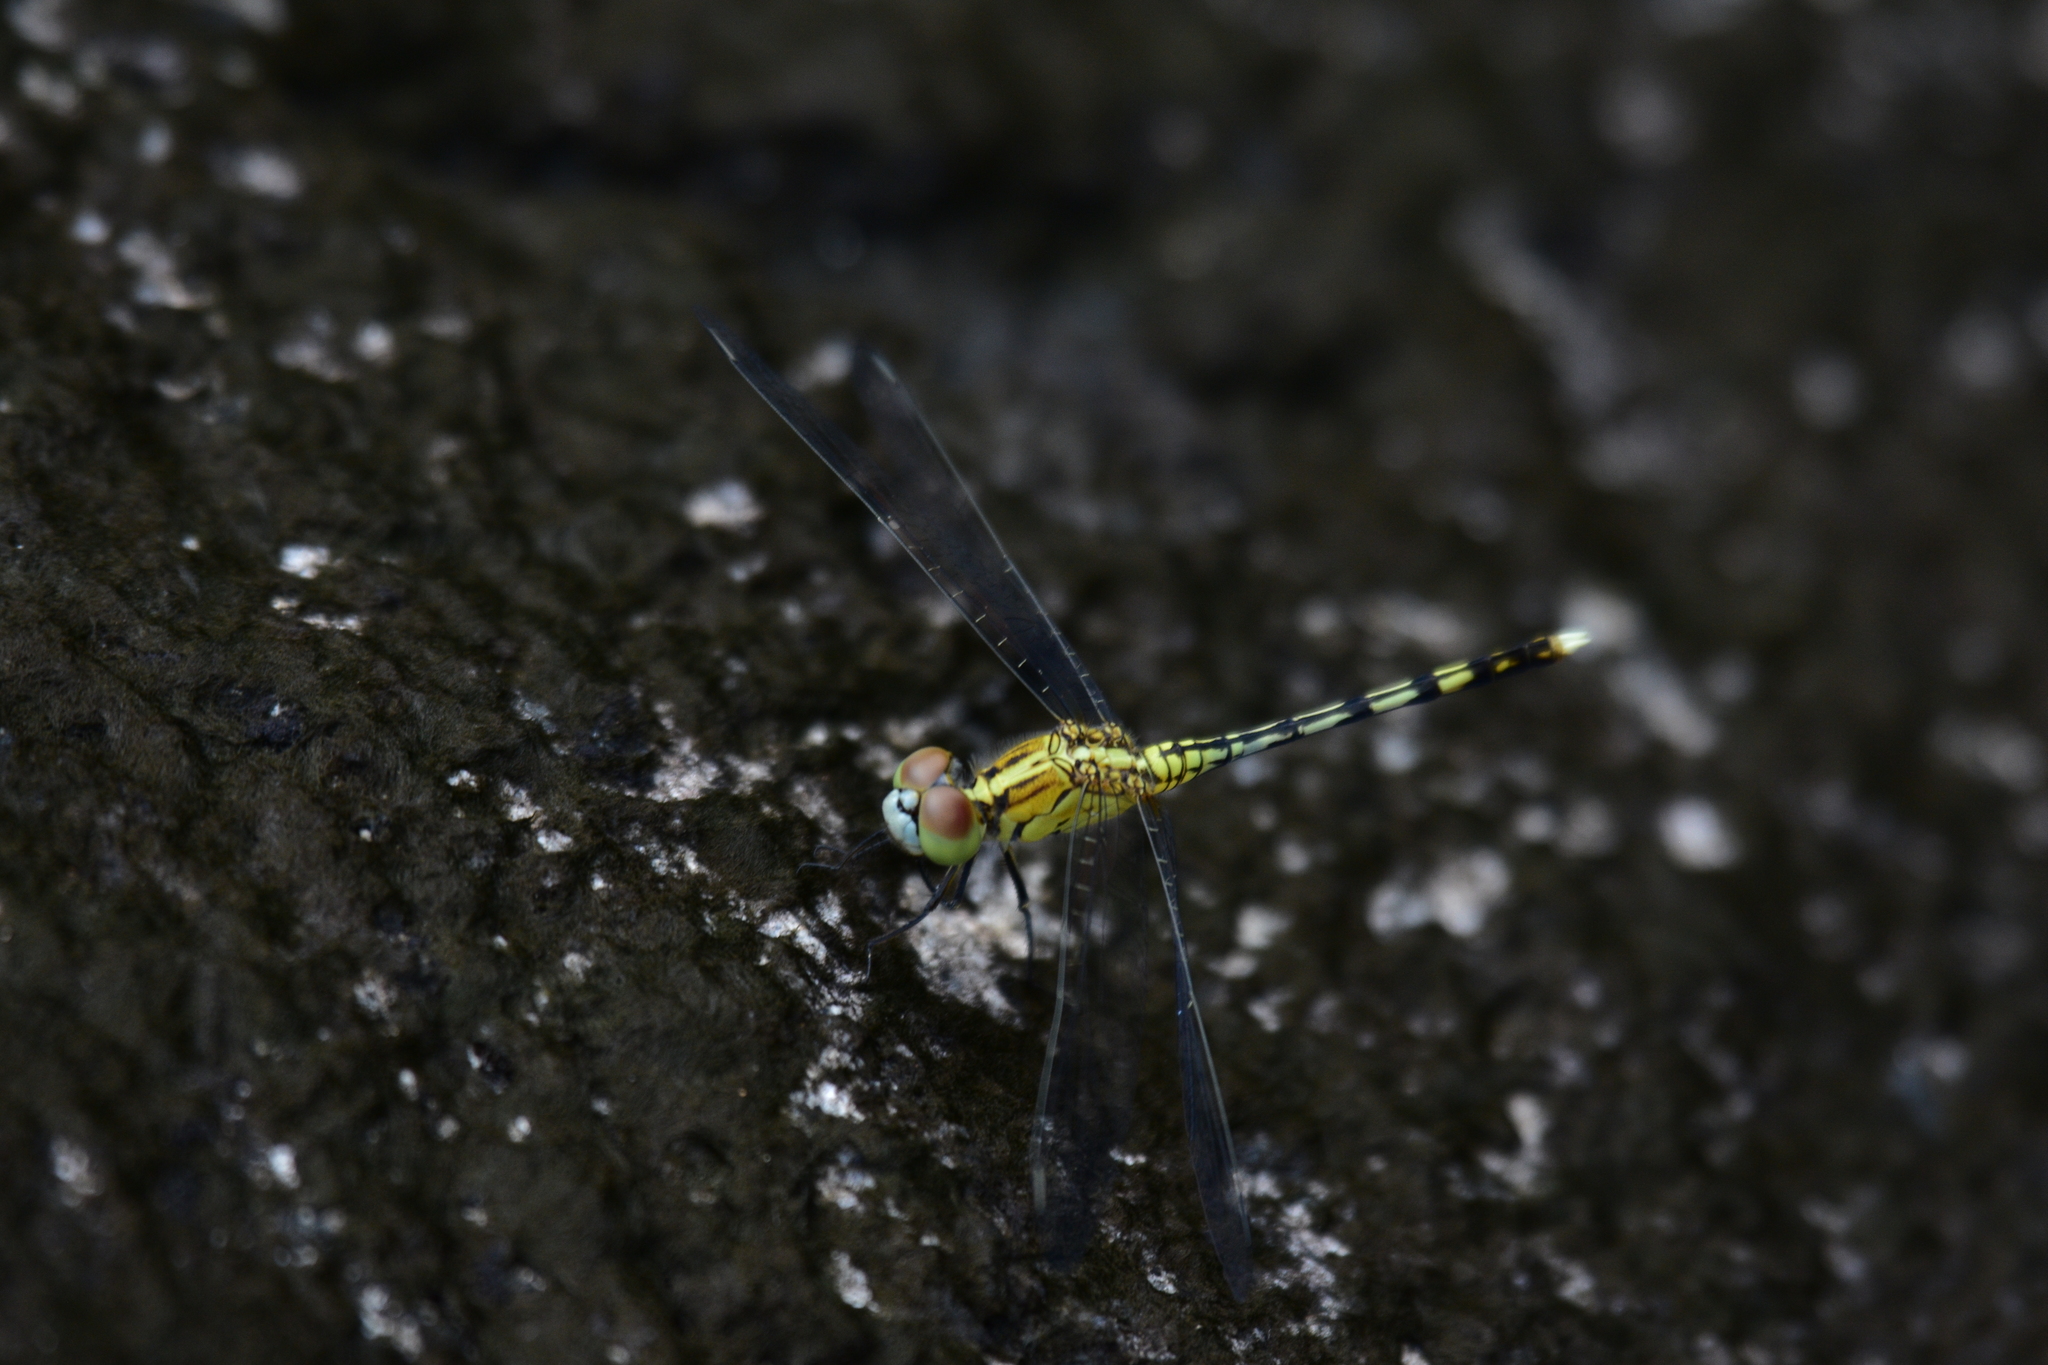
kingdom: Animalia
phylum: Arthropoda
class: Insecta
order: Odonata
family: Libellulidae
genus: Diplacodes
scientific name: Diplacodes trivialis
